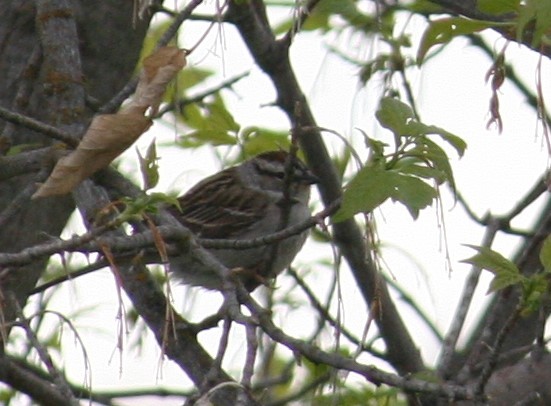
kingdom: Animalia
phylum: Chordata
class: Aves
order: Passeriformes
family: Passerellidae
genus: Spizella
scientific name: Spizella passerina
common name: Chipping sparrow
